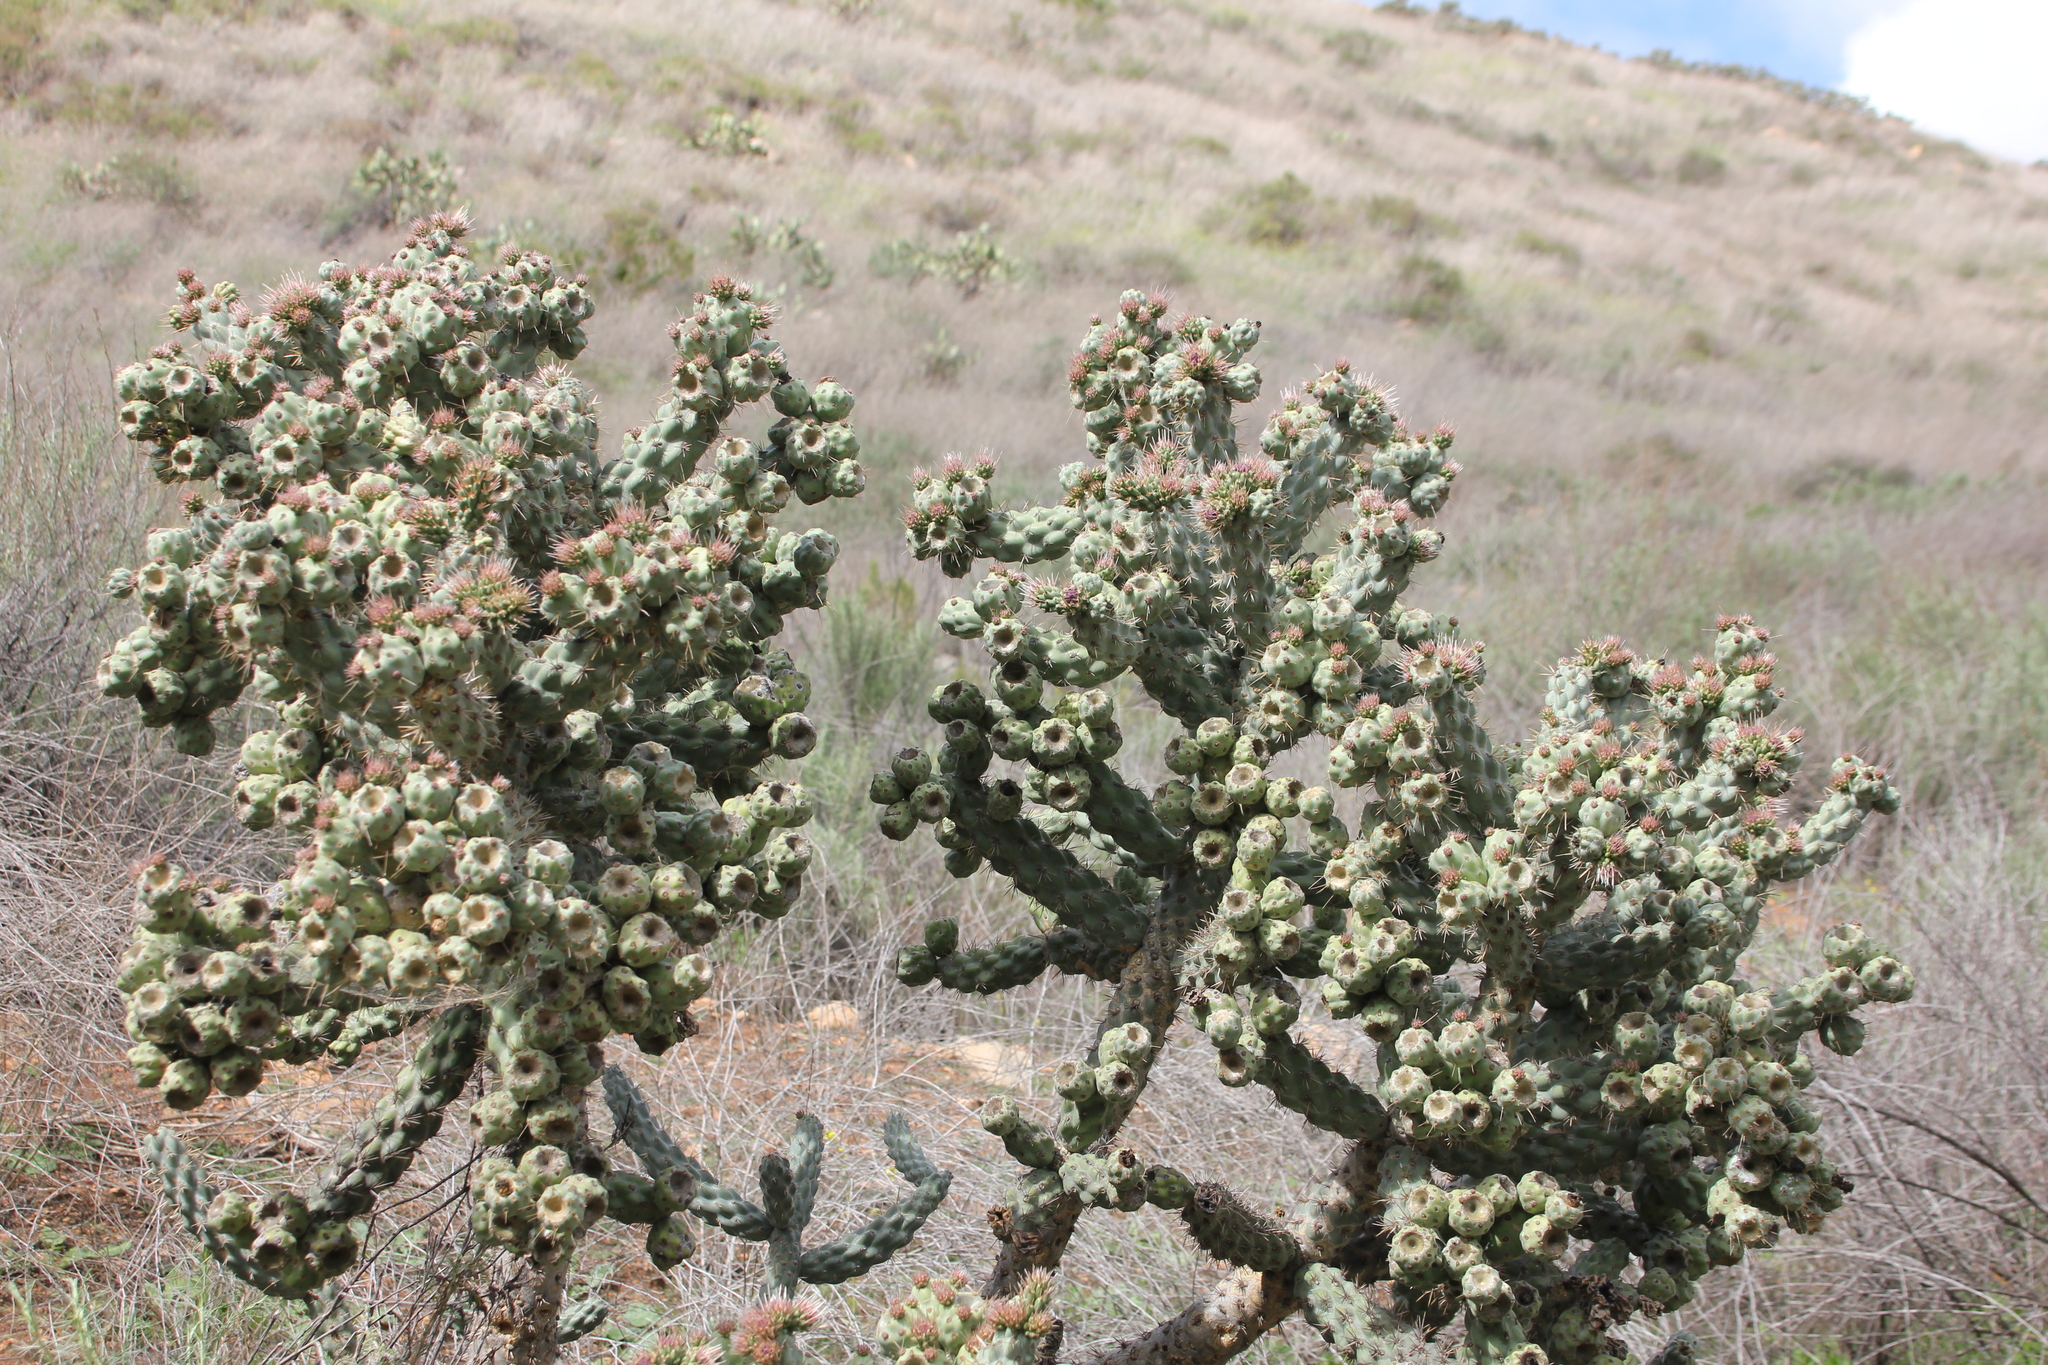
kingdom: Plantae
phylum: Tracheophyta
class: Magnoliopsida
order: Caryophyllales
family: Cactaceae
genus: Cylindropuntia
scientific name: Cylindropuntia prolifera
